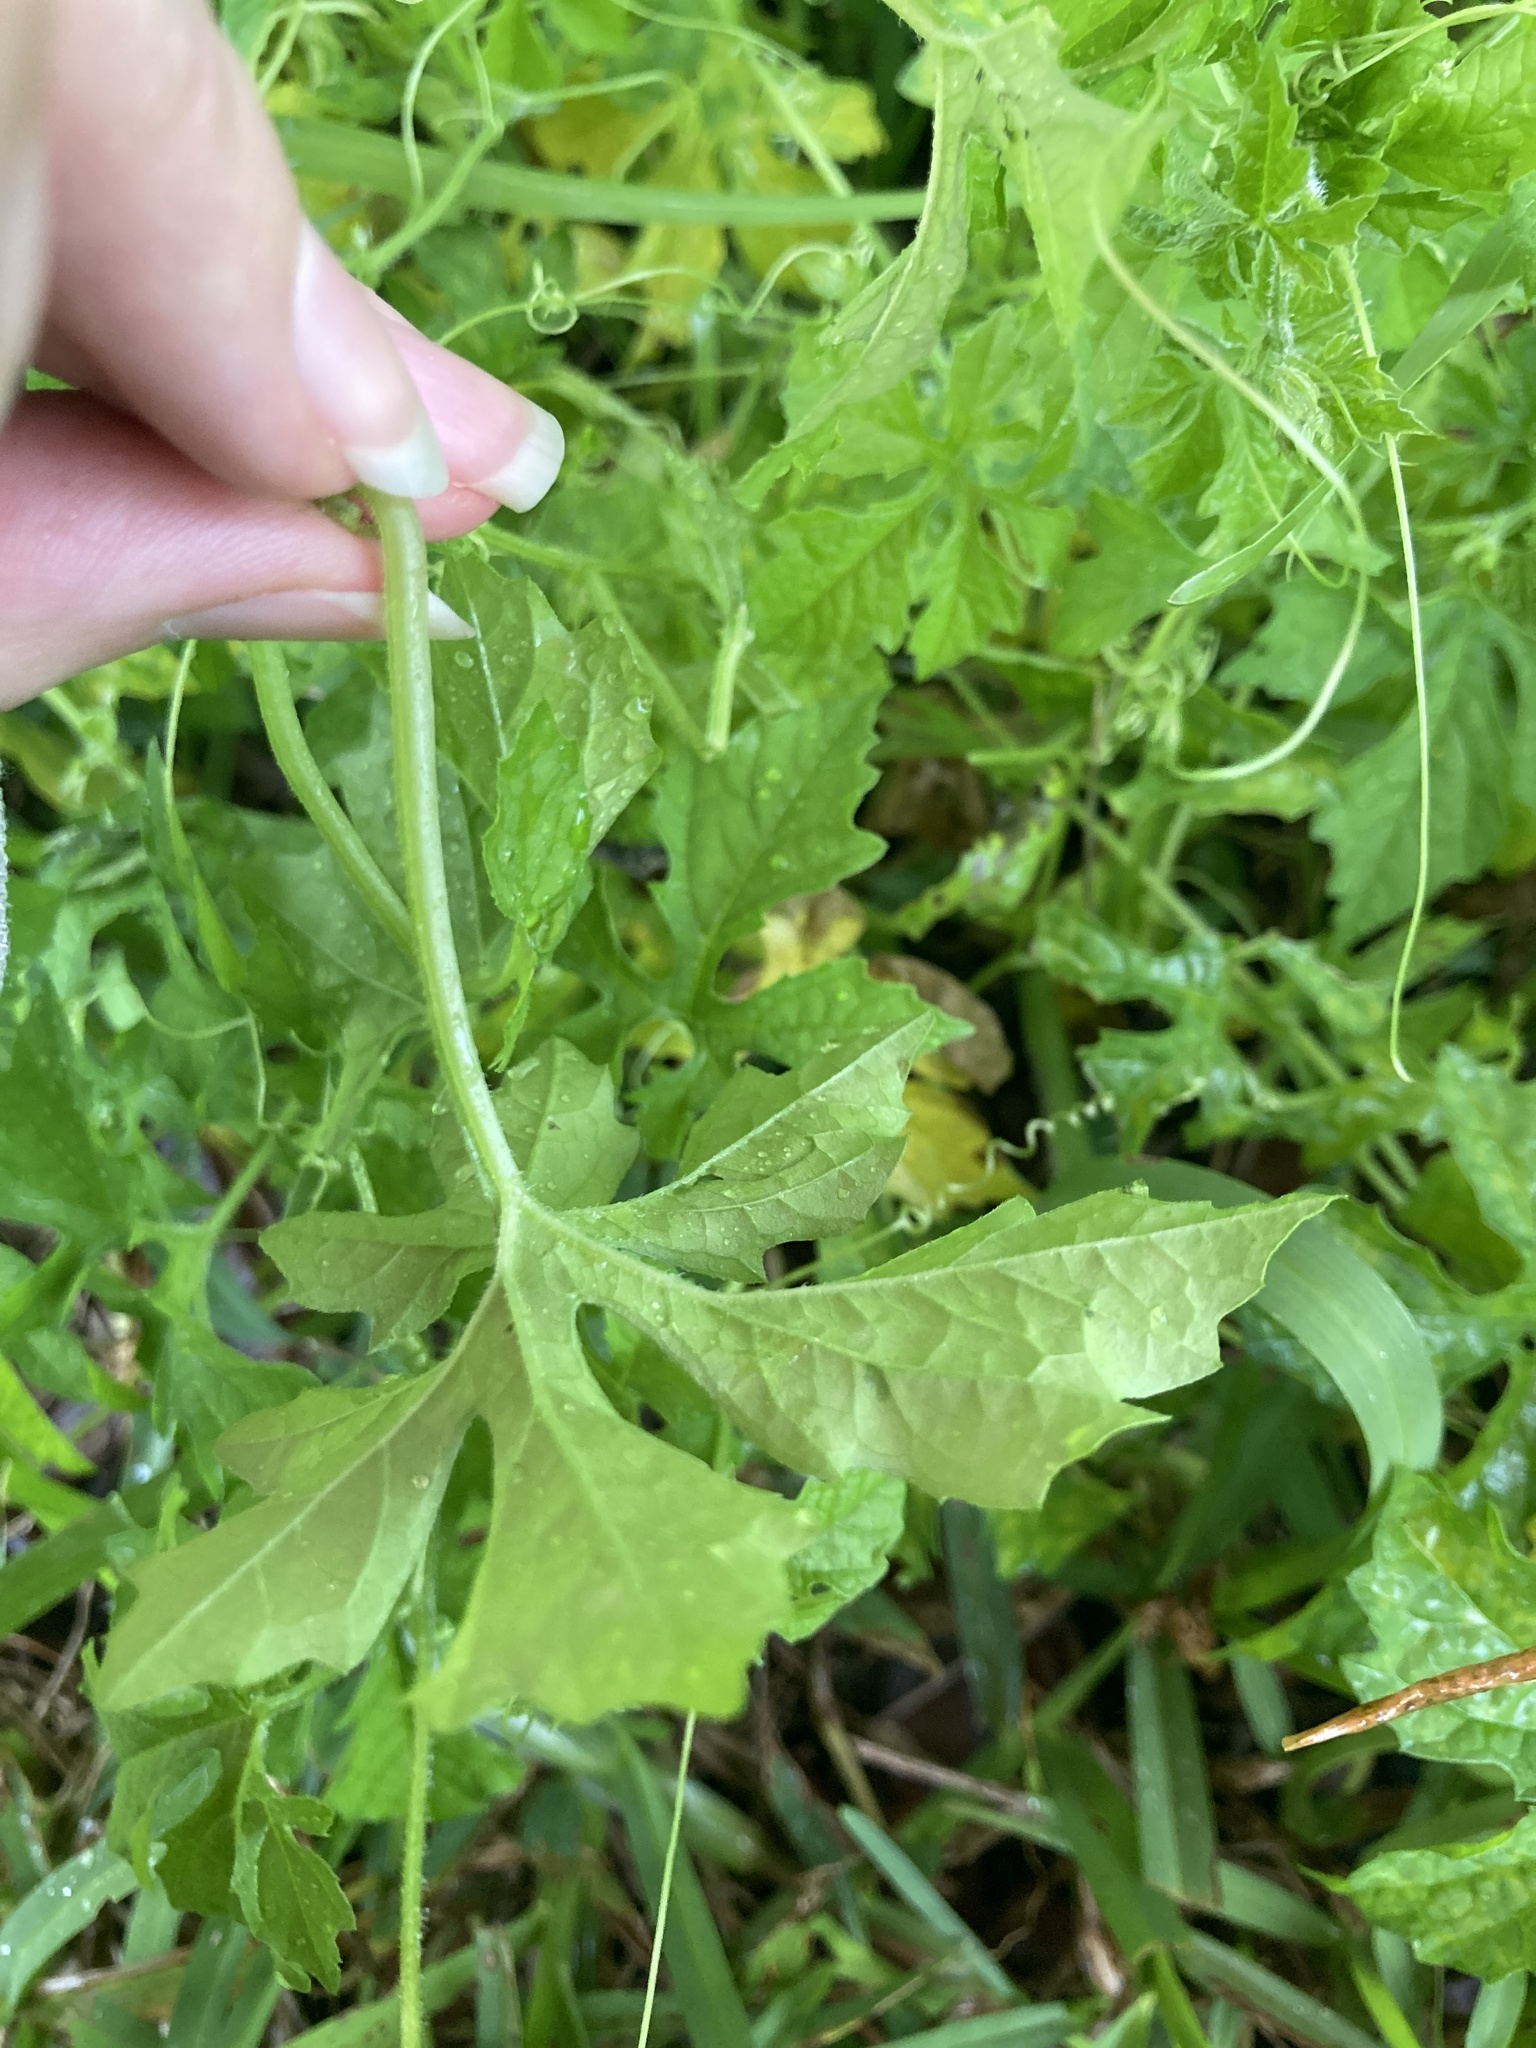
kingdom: Plantae
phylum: Tracheophyta
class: Magnoliopsida
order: Cucurbitales
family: Cucurbitaceae
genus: Momordica
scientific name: Momordica charantia
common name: Balsampear
